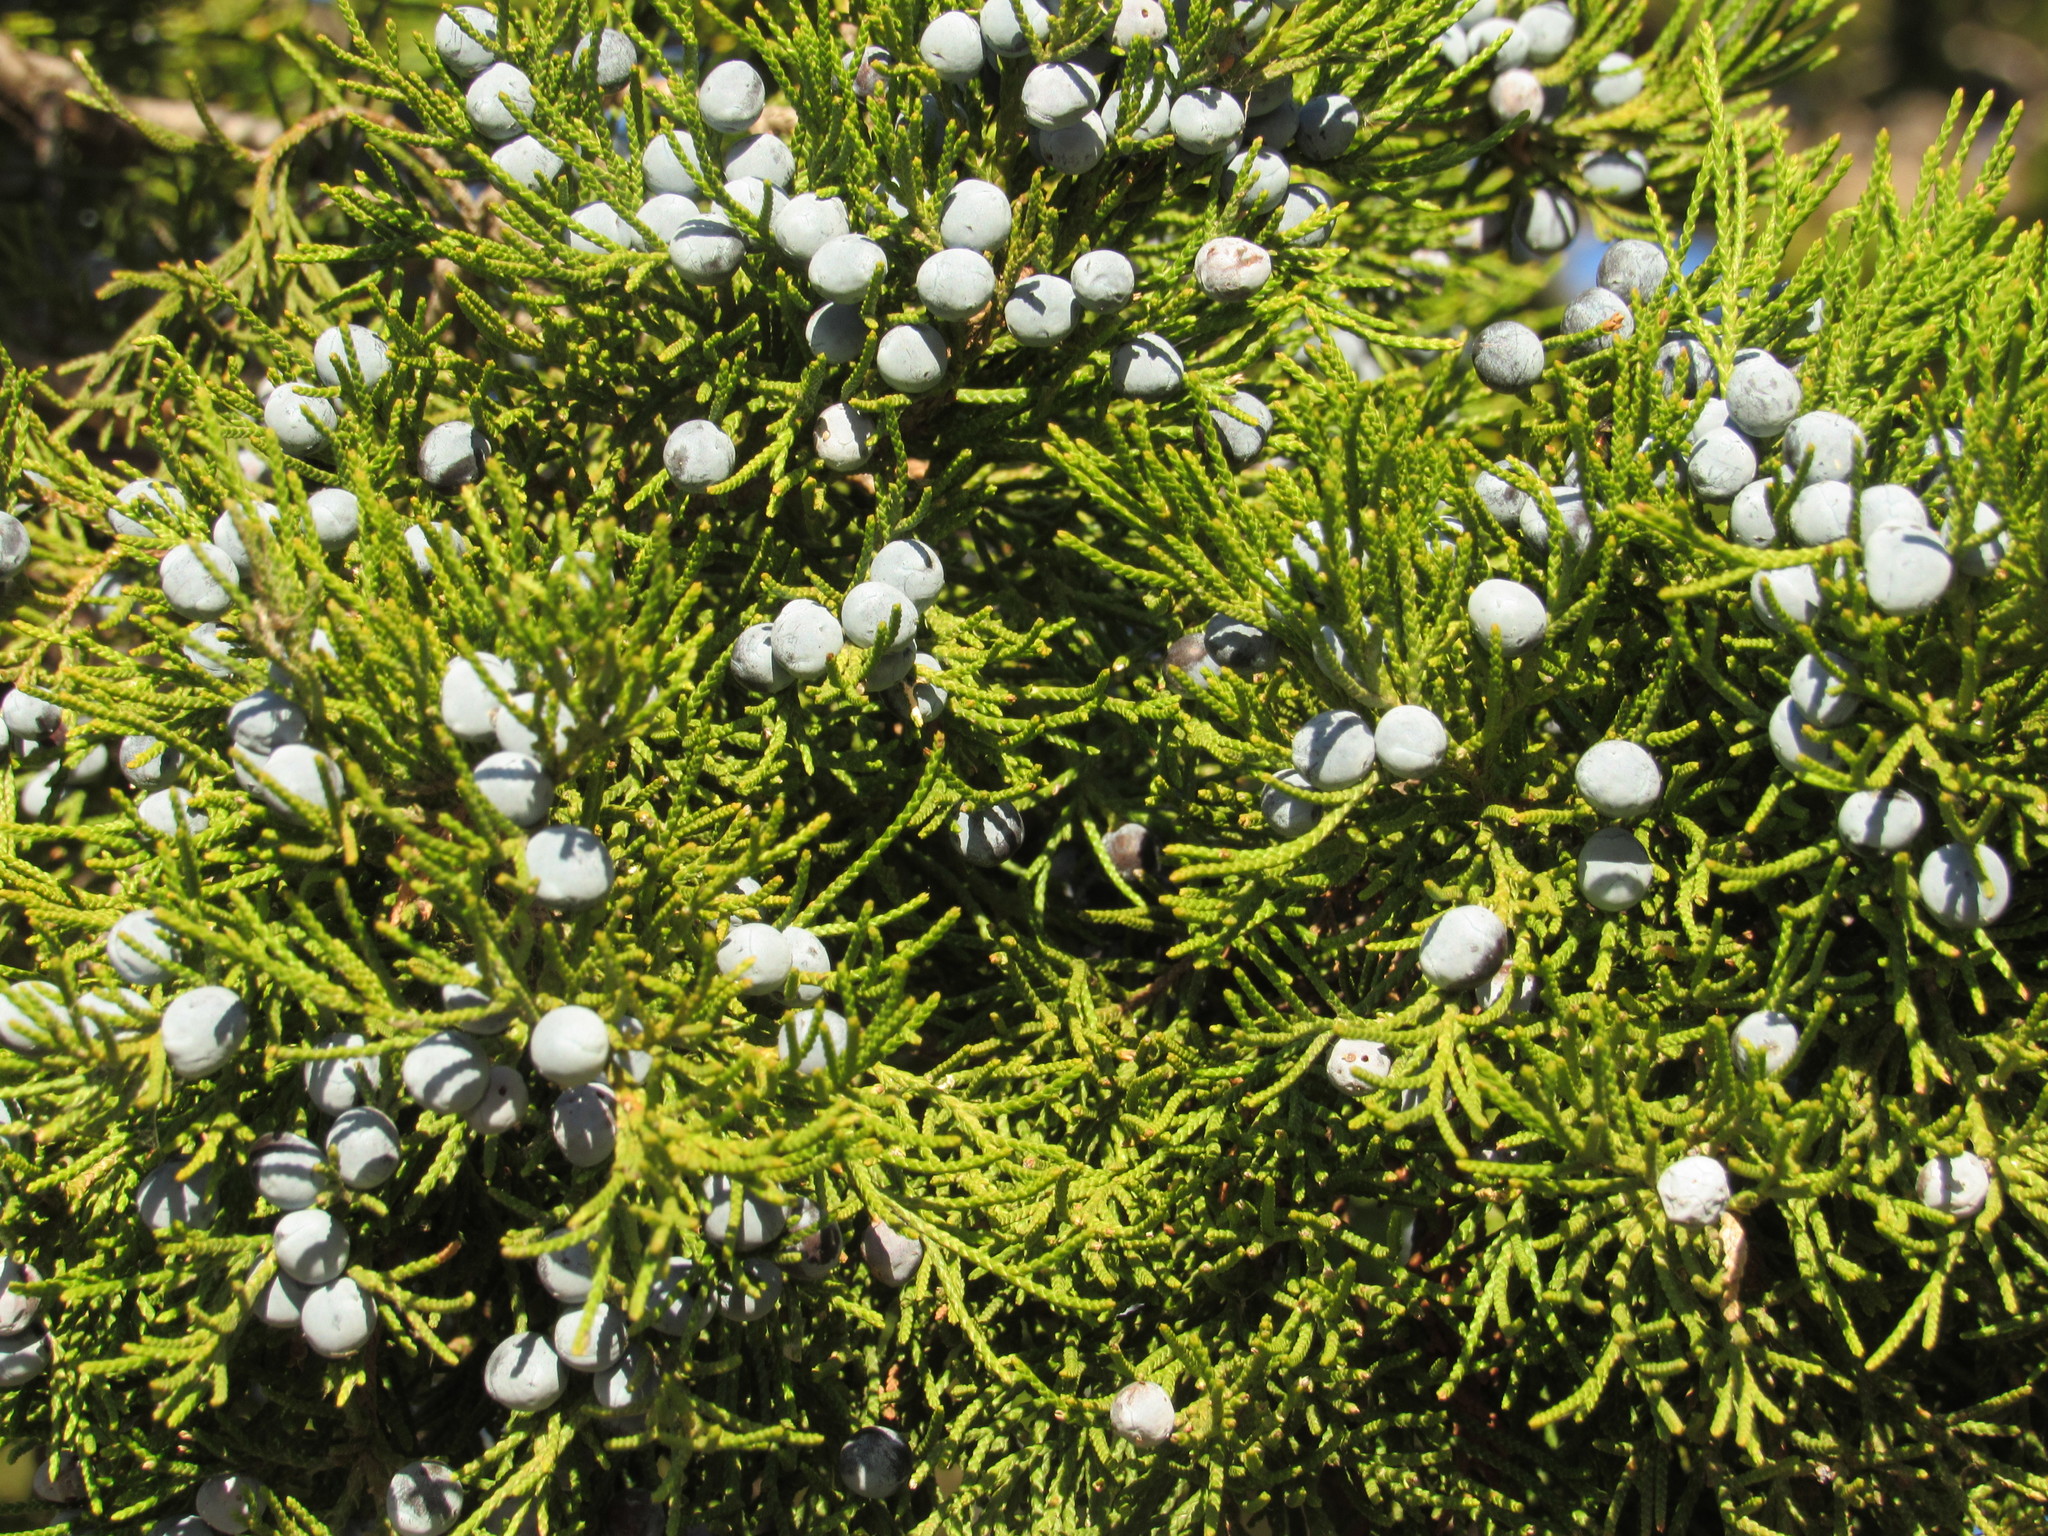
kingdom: Plantae
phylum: Tracheophyta
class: Pinopsida
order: Pinales
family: Cupressaceae
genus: Juniperus
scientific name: Juniperus virginiana
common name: Red juniper
